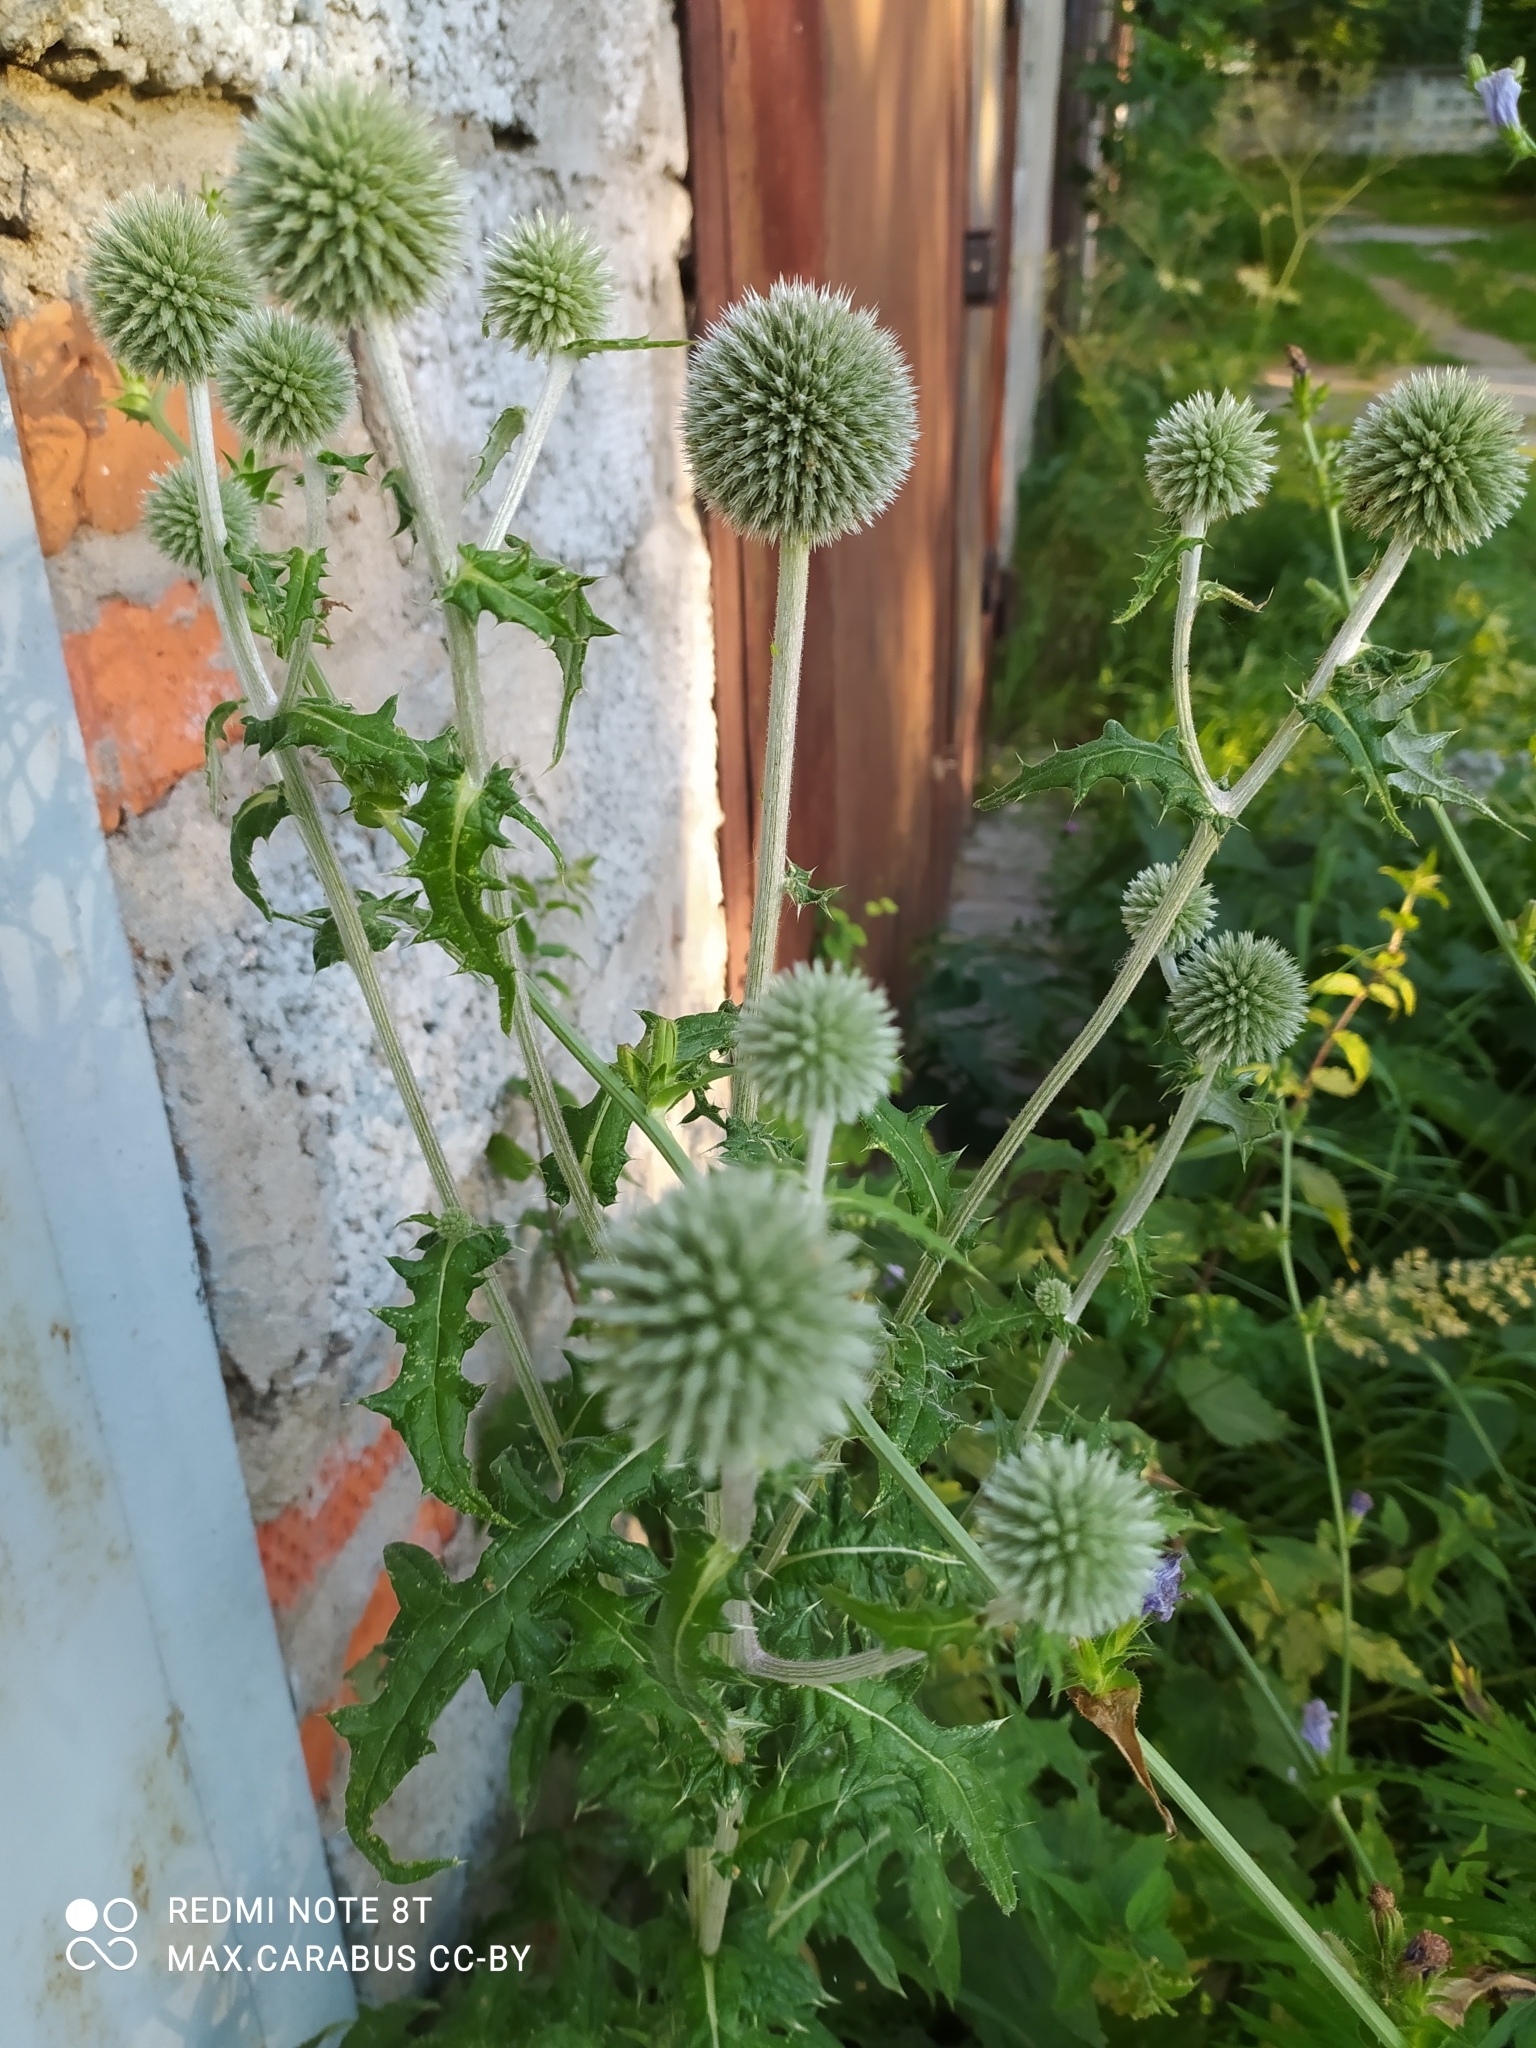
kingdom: Plantae
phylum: Tracheophyta
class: Magnoliopsida
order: Asterales
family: Asteraceae
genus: Echinops
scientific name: Echinops sphaerocephalus
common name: Glandular globe-thistle
